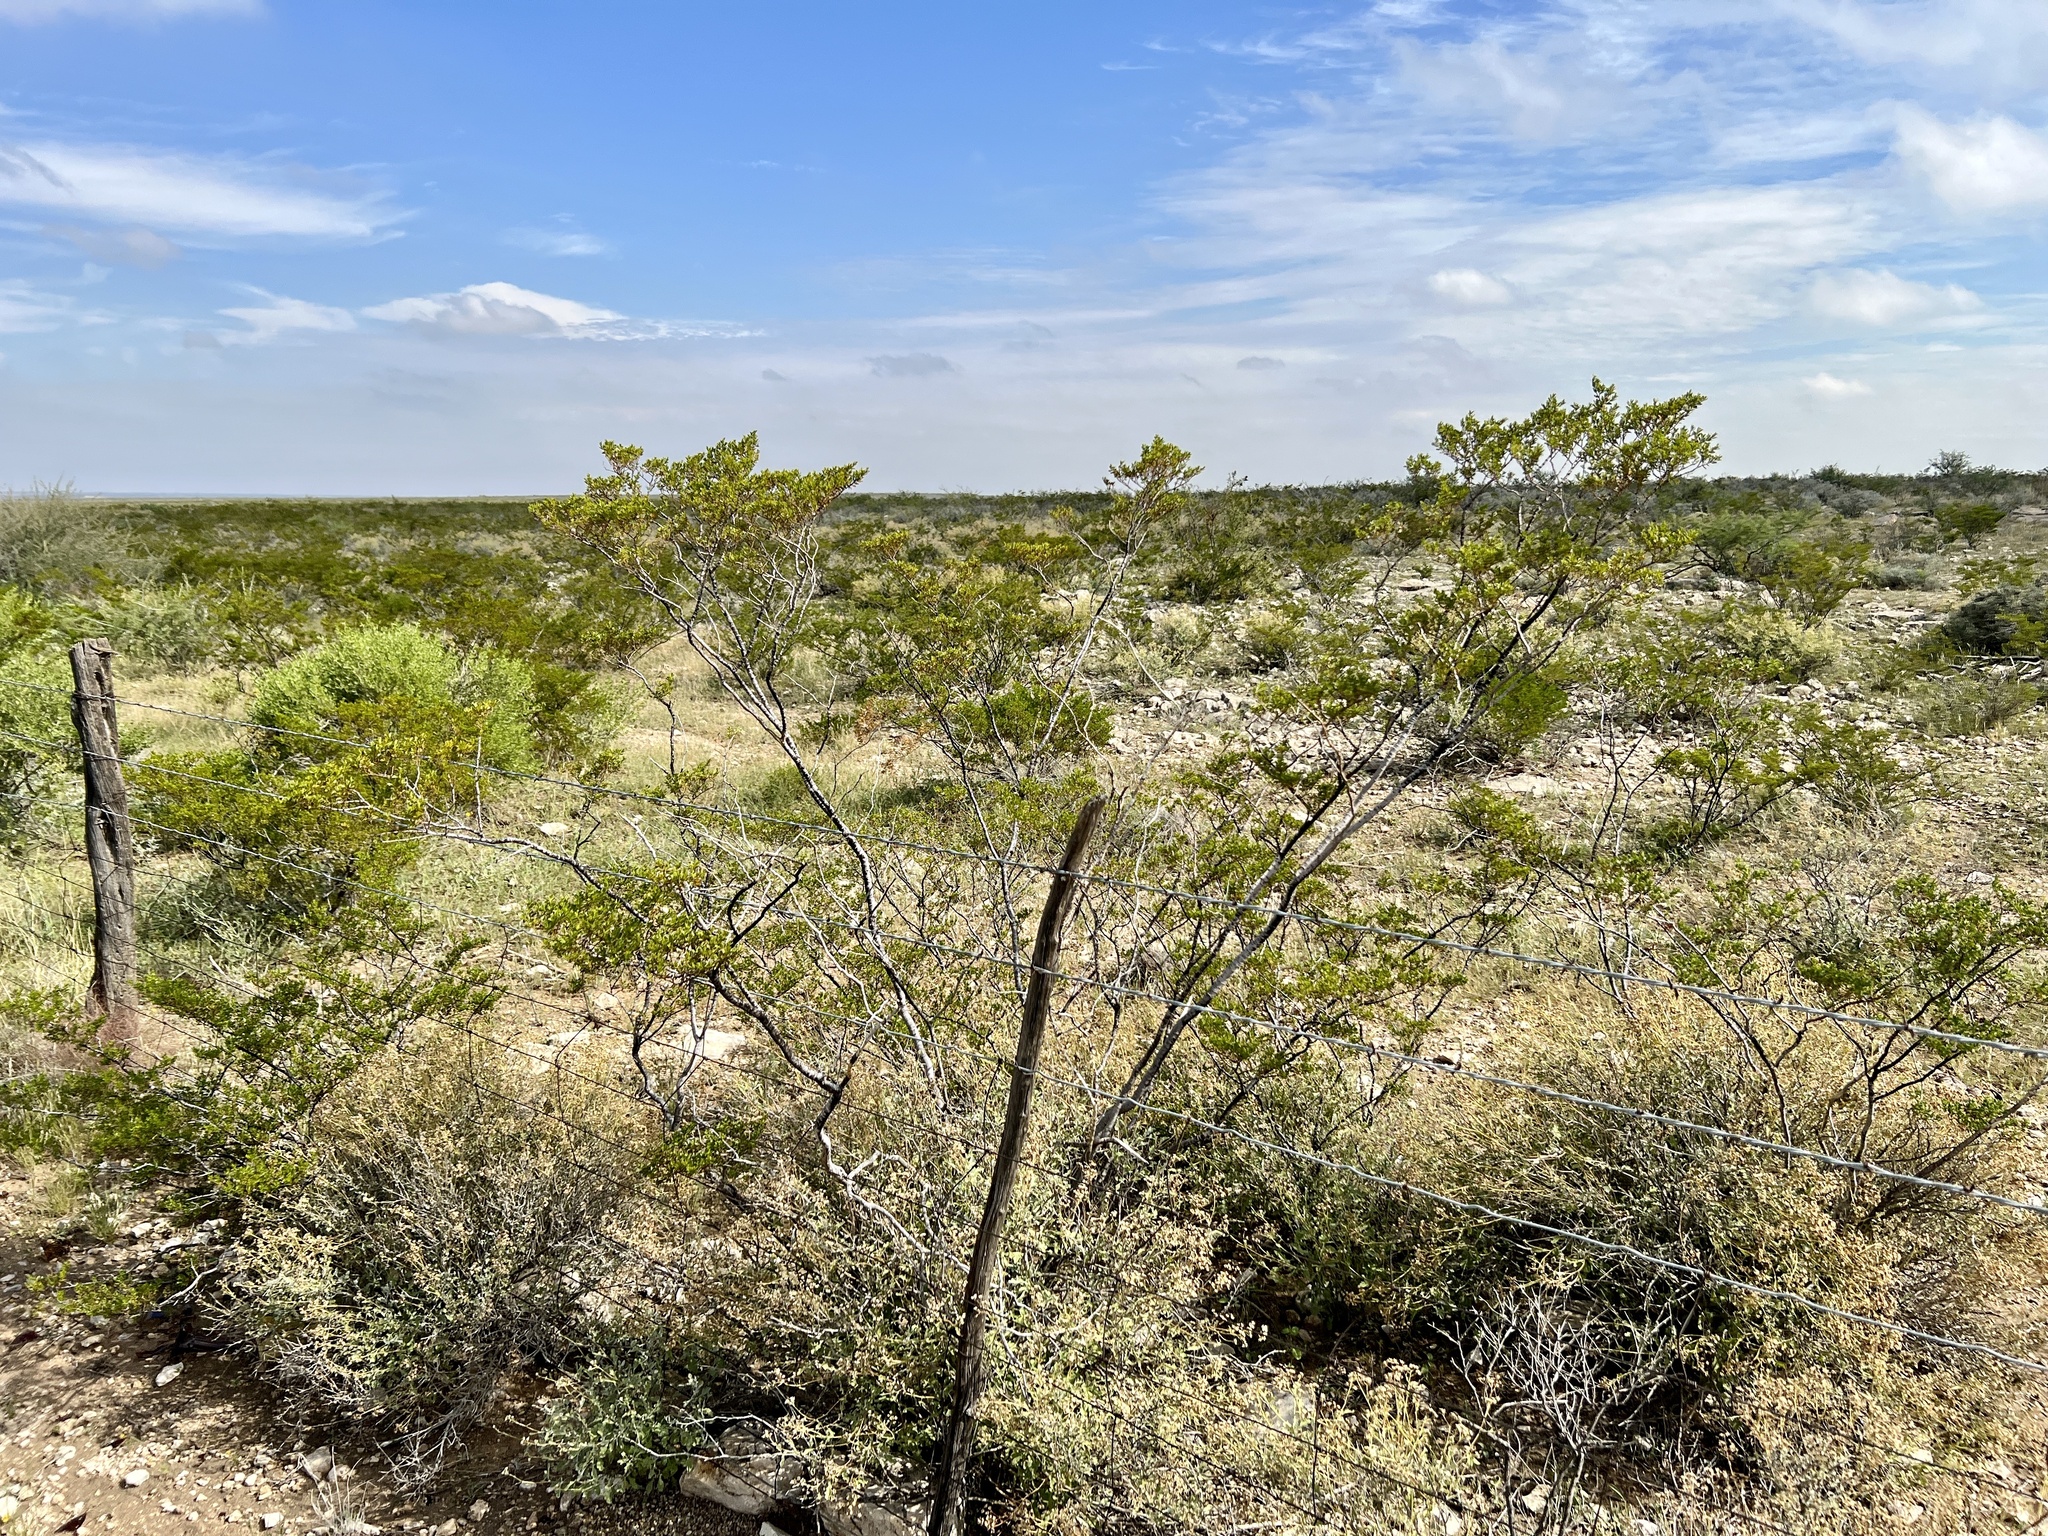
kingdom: Plantae
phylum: Tracheophyta
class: Magnoliopsida
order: Zygophyllales
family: Zygophyllaceae
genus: Larrea
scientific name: Larrea tridentata
